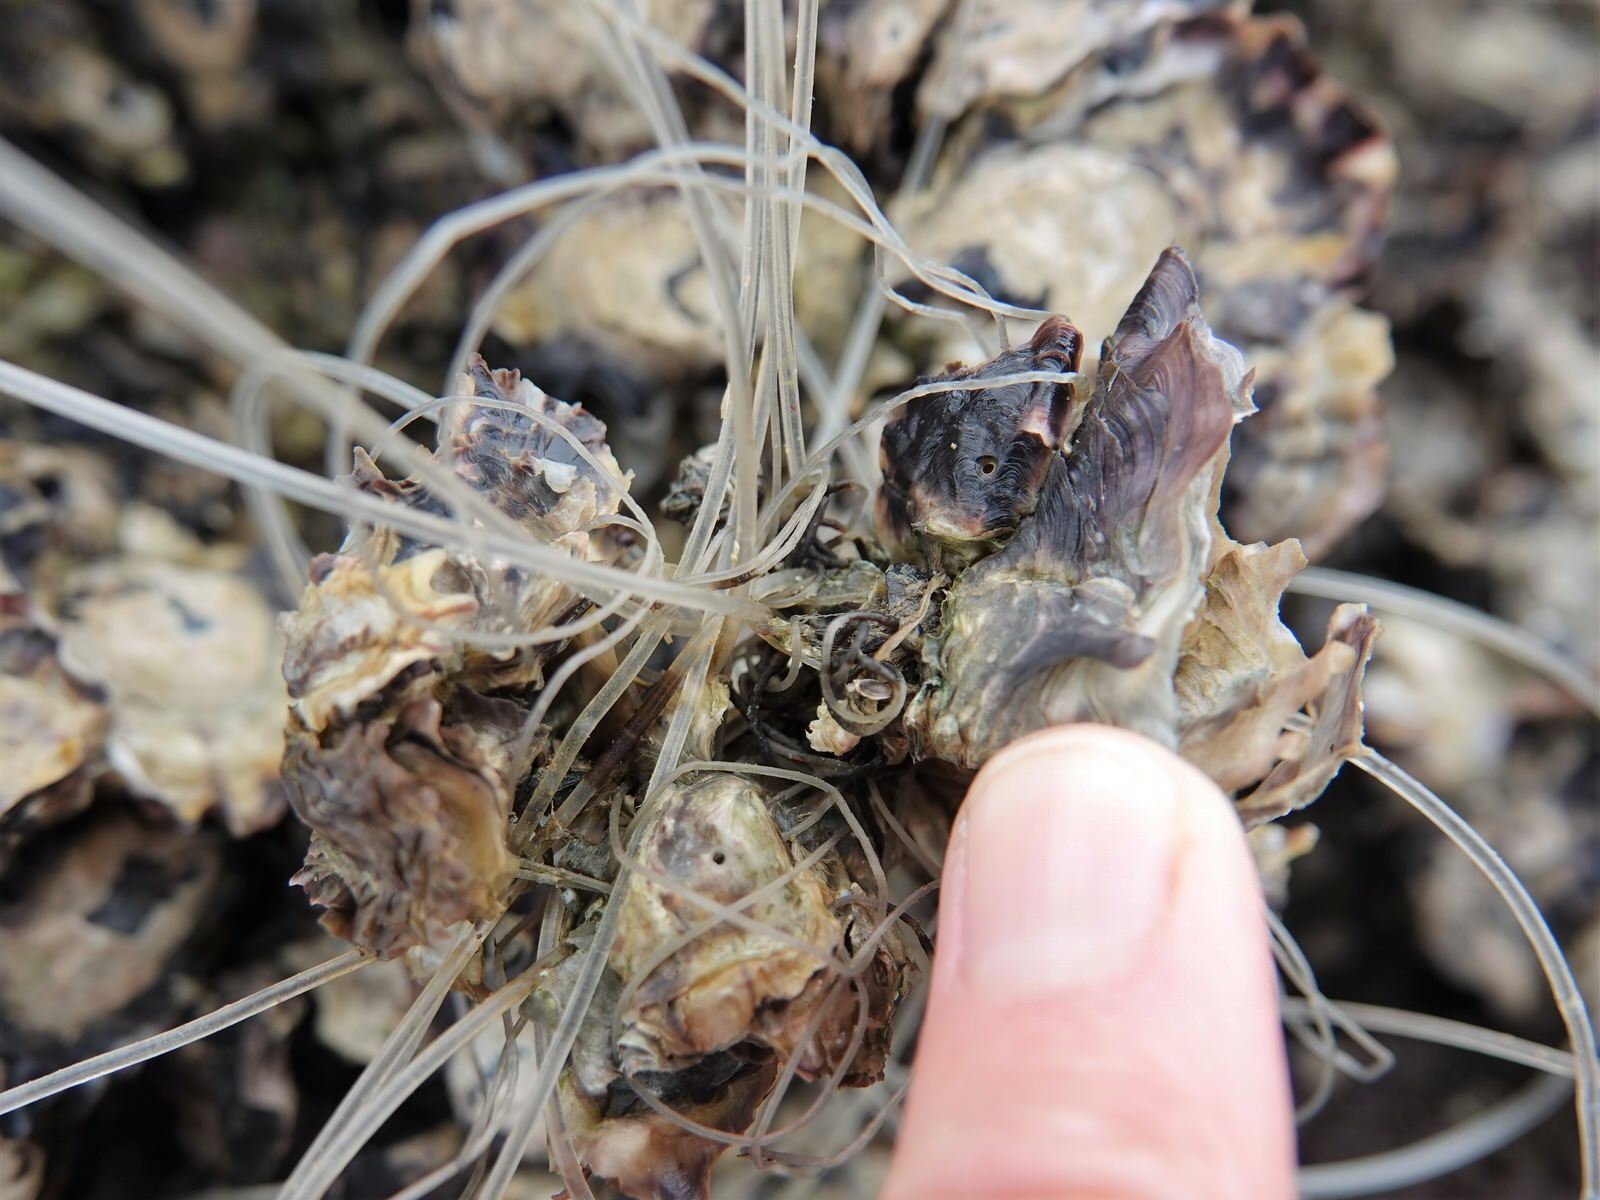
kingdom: Animalia
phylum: Mollusca
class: Bivalvia
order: Ostreida
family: Ostreidae
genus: Magallana
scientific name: Magallana gigas
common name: Pacific oyster
